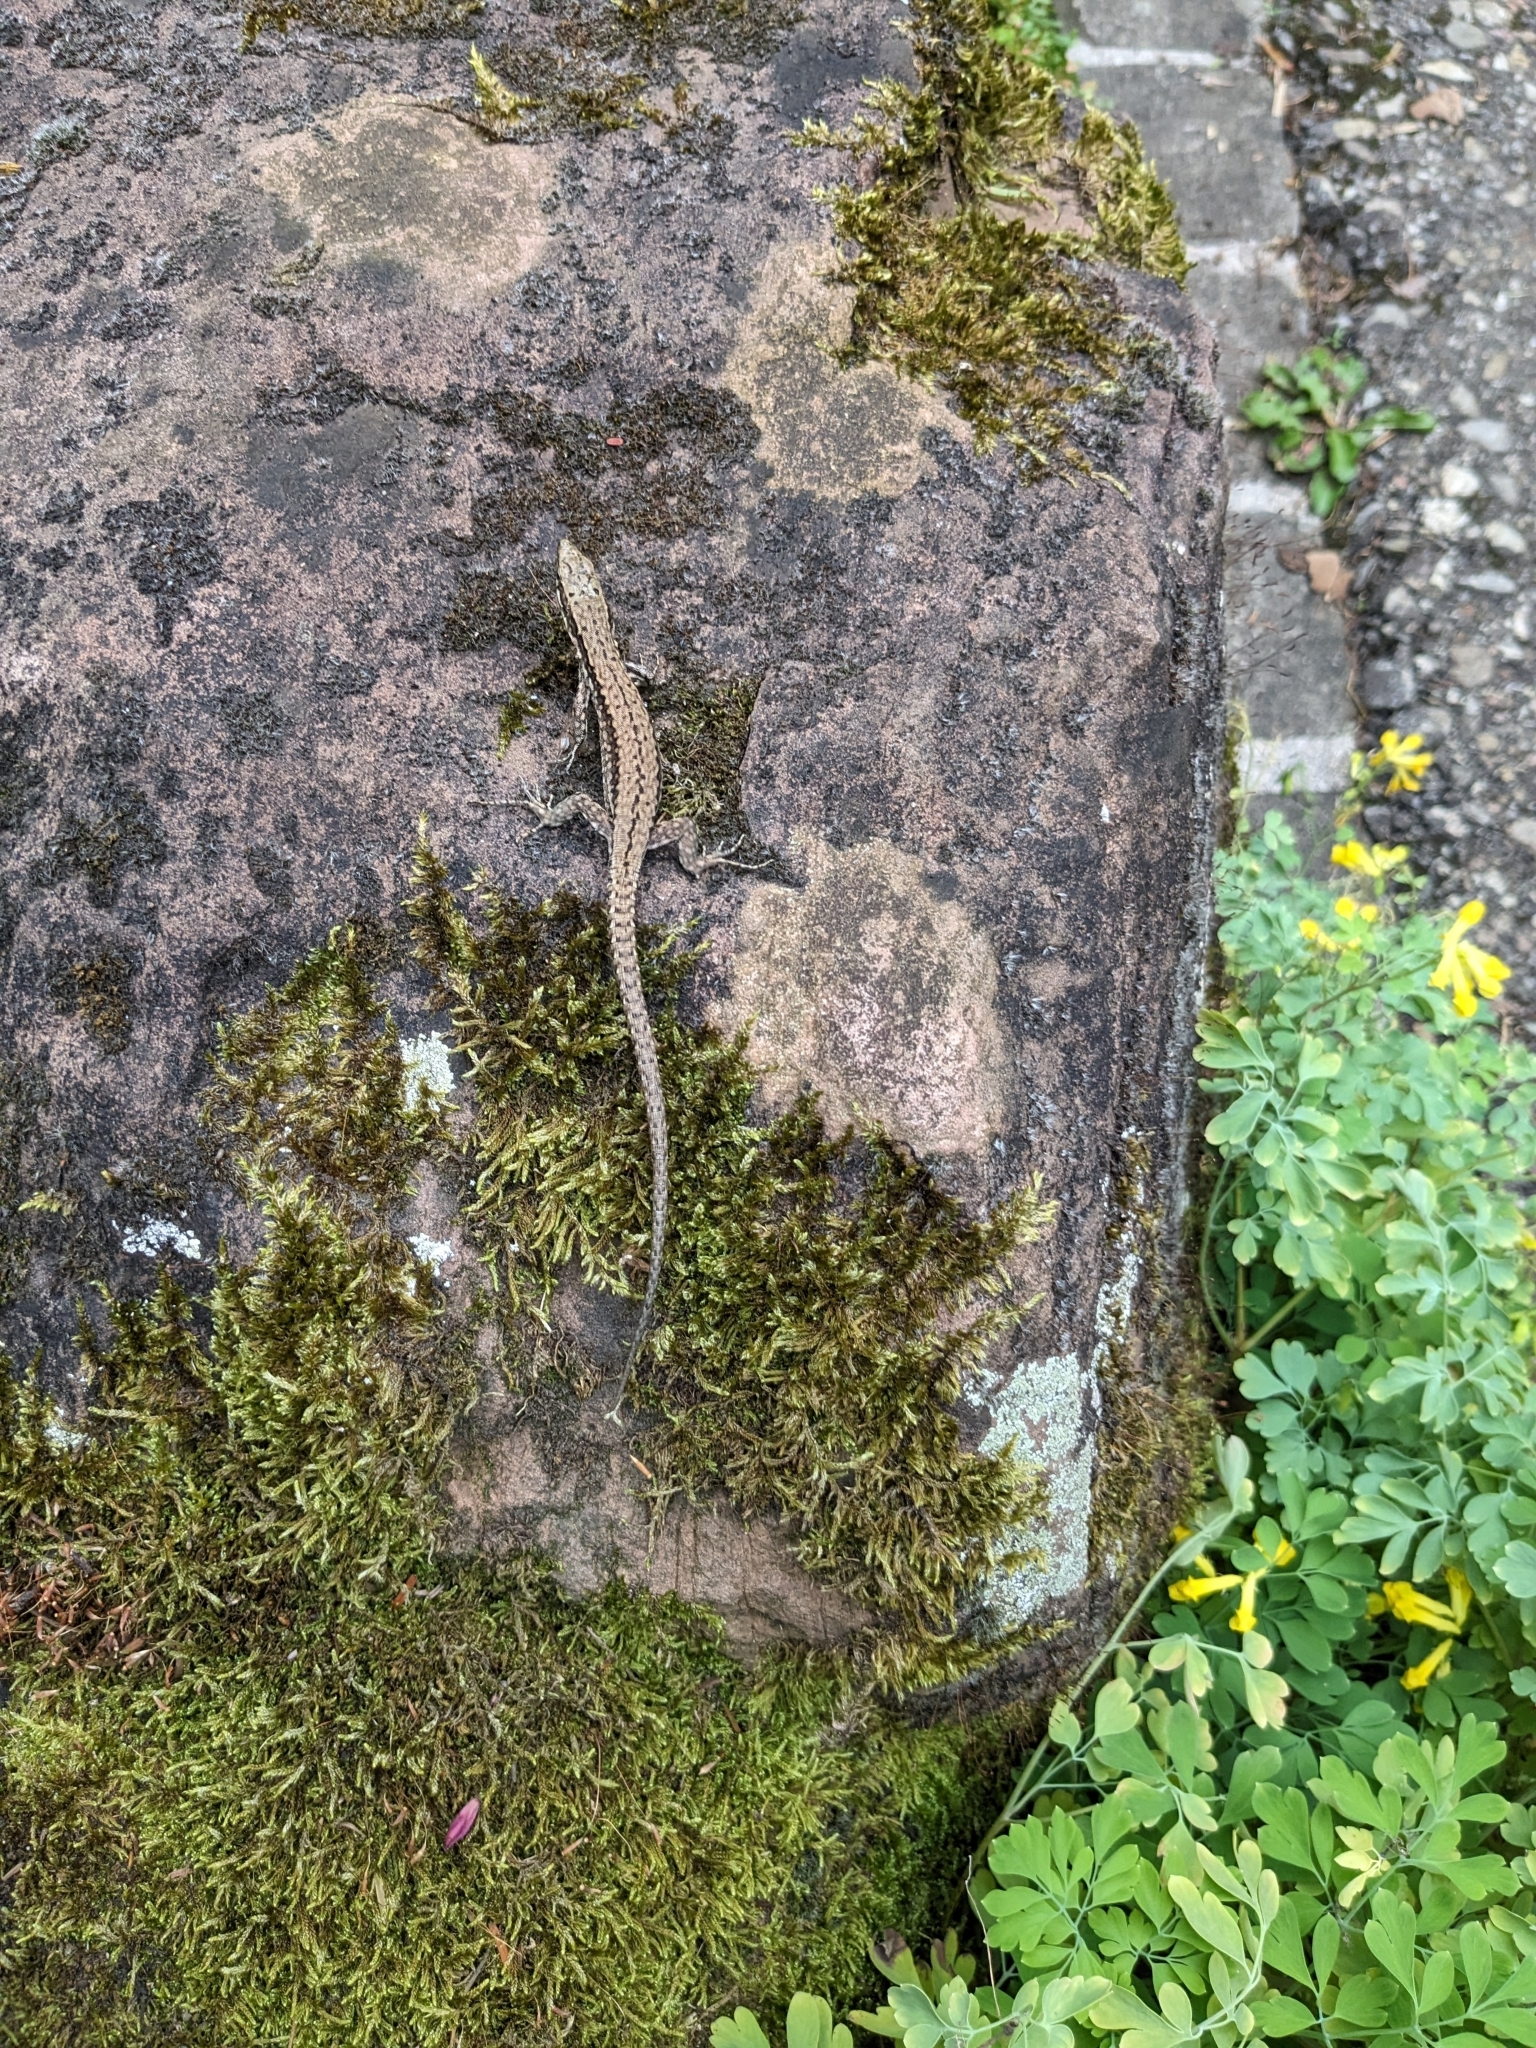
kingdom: Animalia
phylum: Chordata
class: Squamata
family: Lacertidae
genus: Podarcis
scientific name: Podarcis muralis
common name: Common wall lizard
